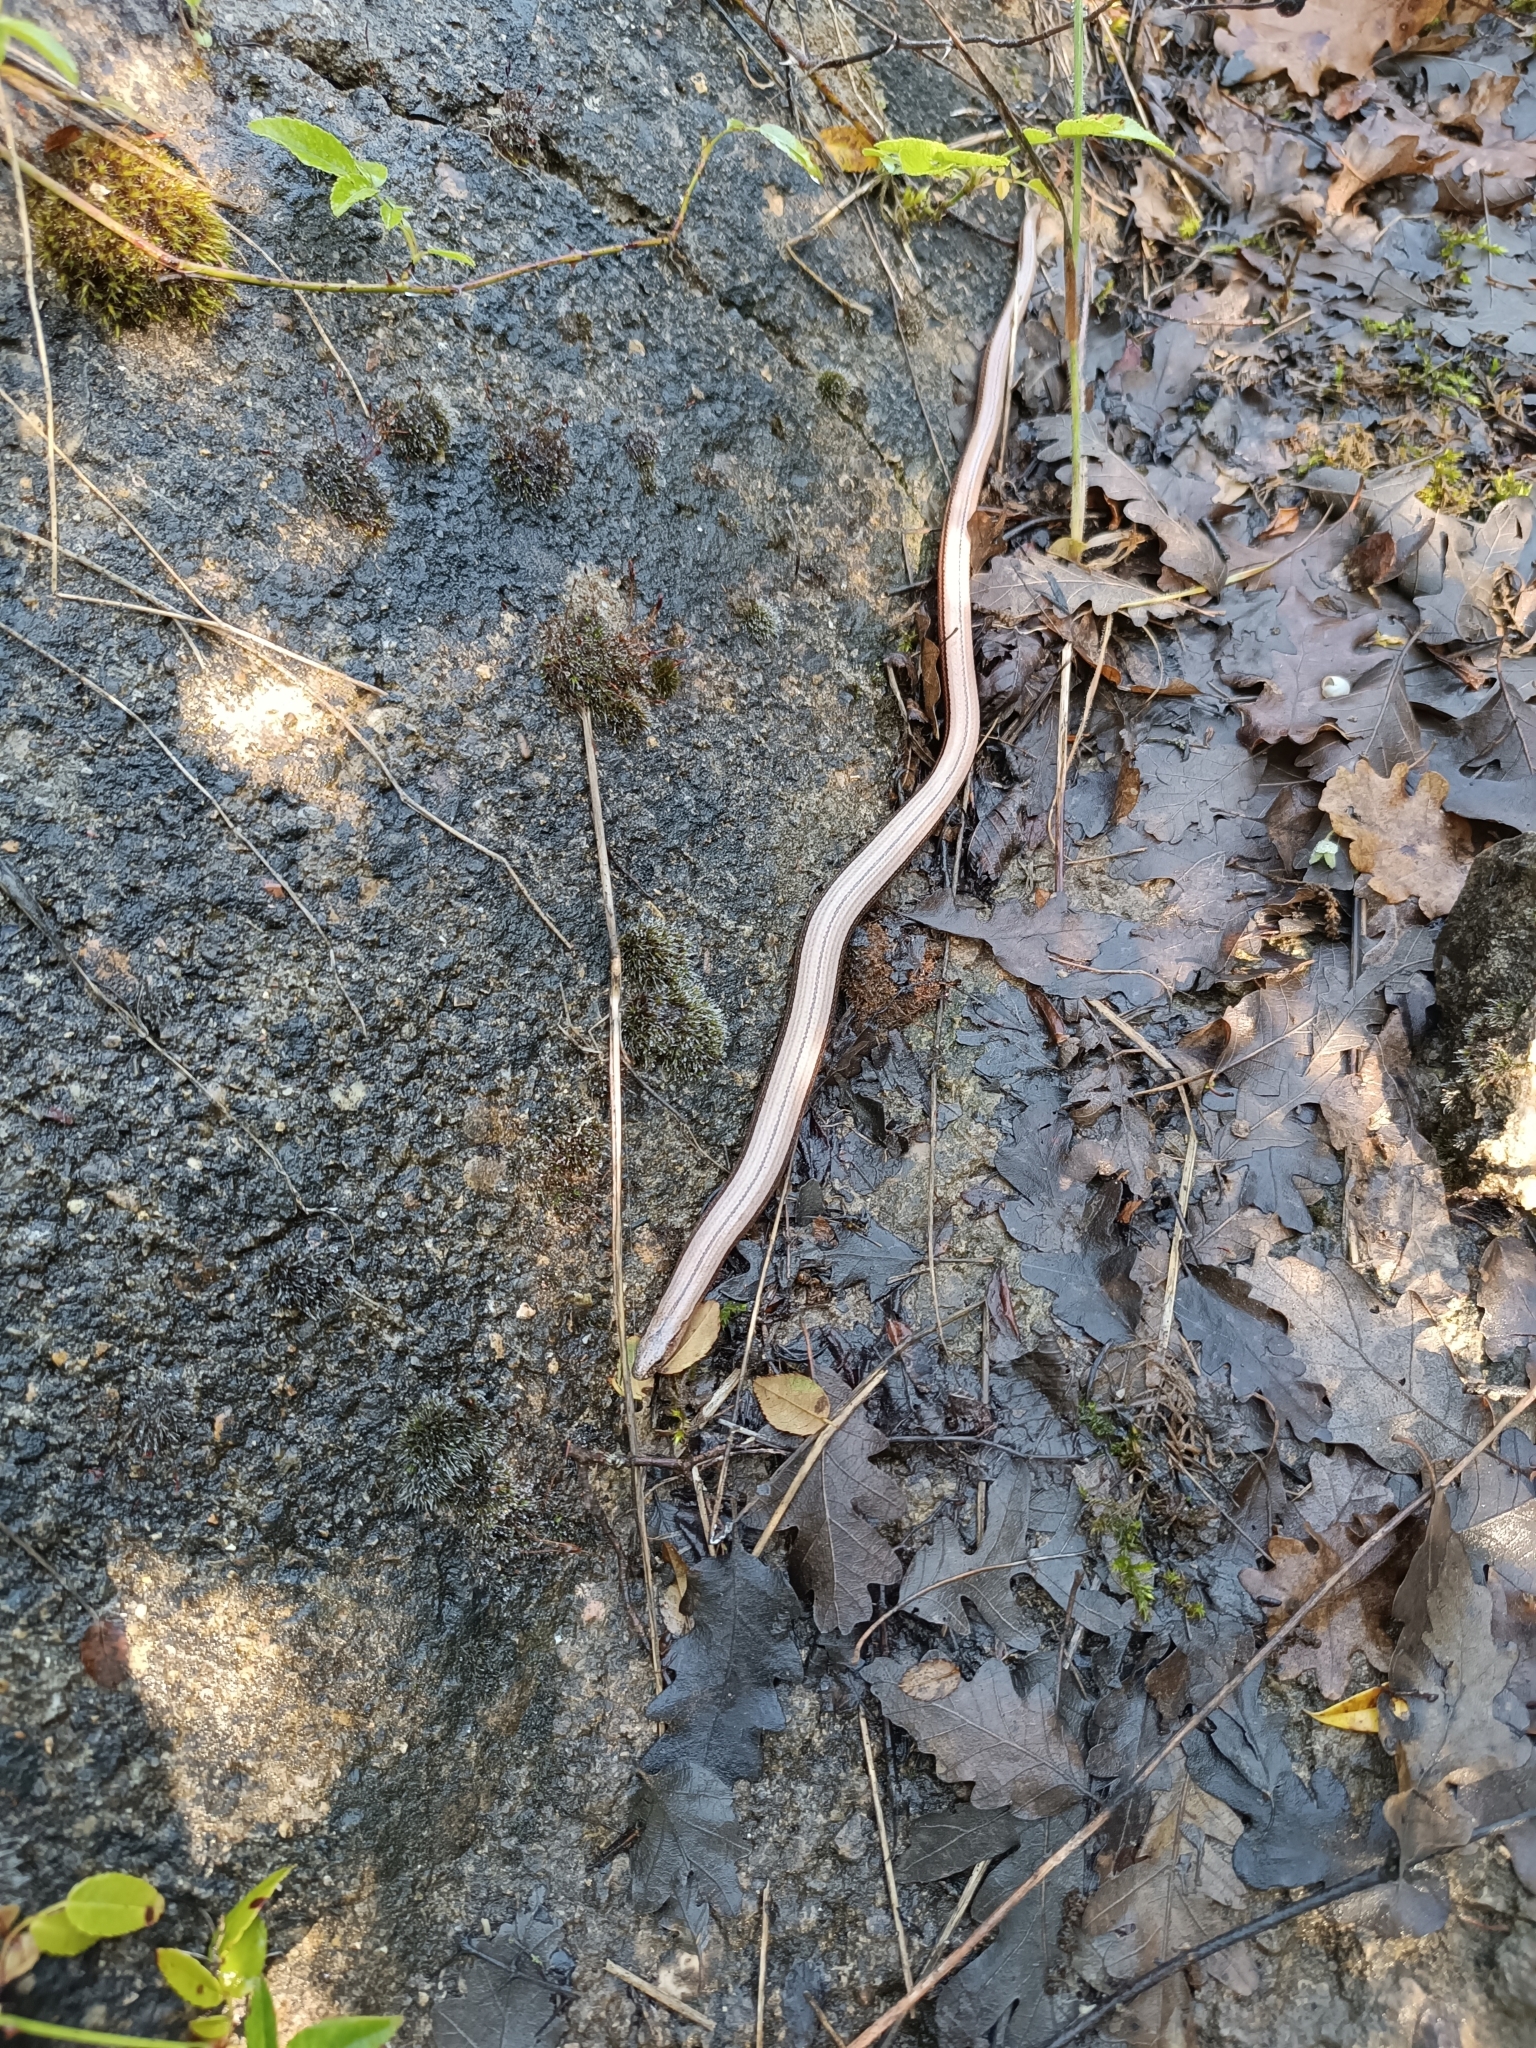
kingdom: Animalia
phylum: Chordata
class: Squamata
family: Anguidae
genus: Anguis
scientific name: Anguis veronensis
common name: Italian slow worm
